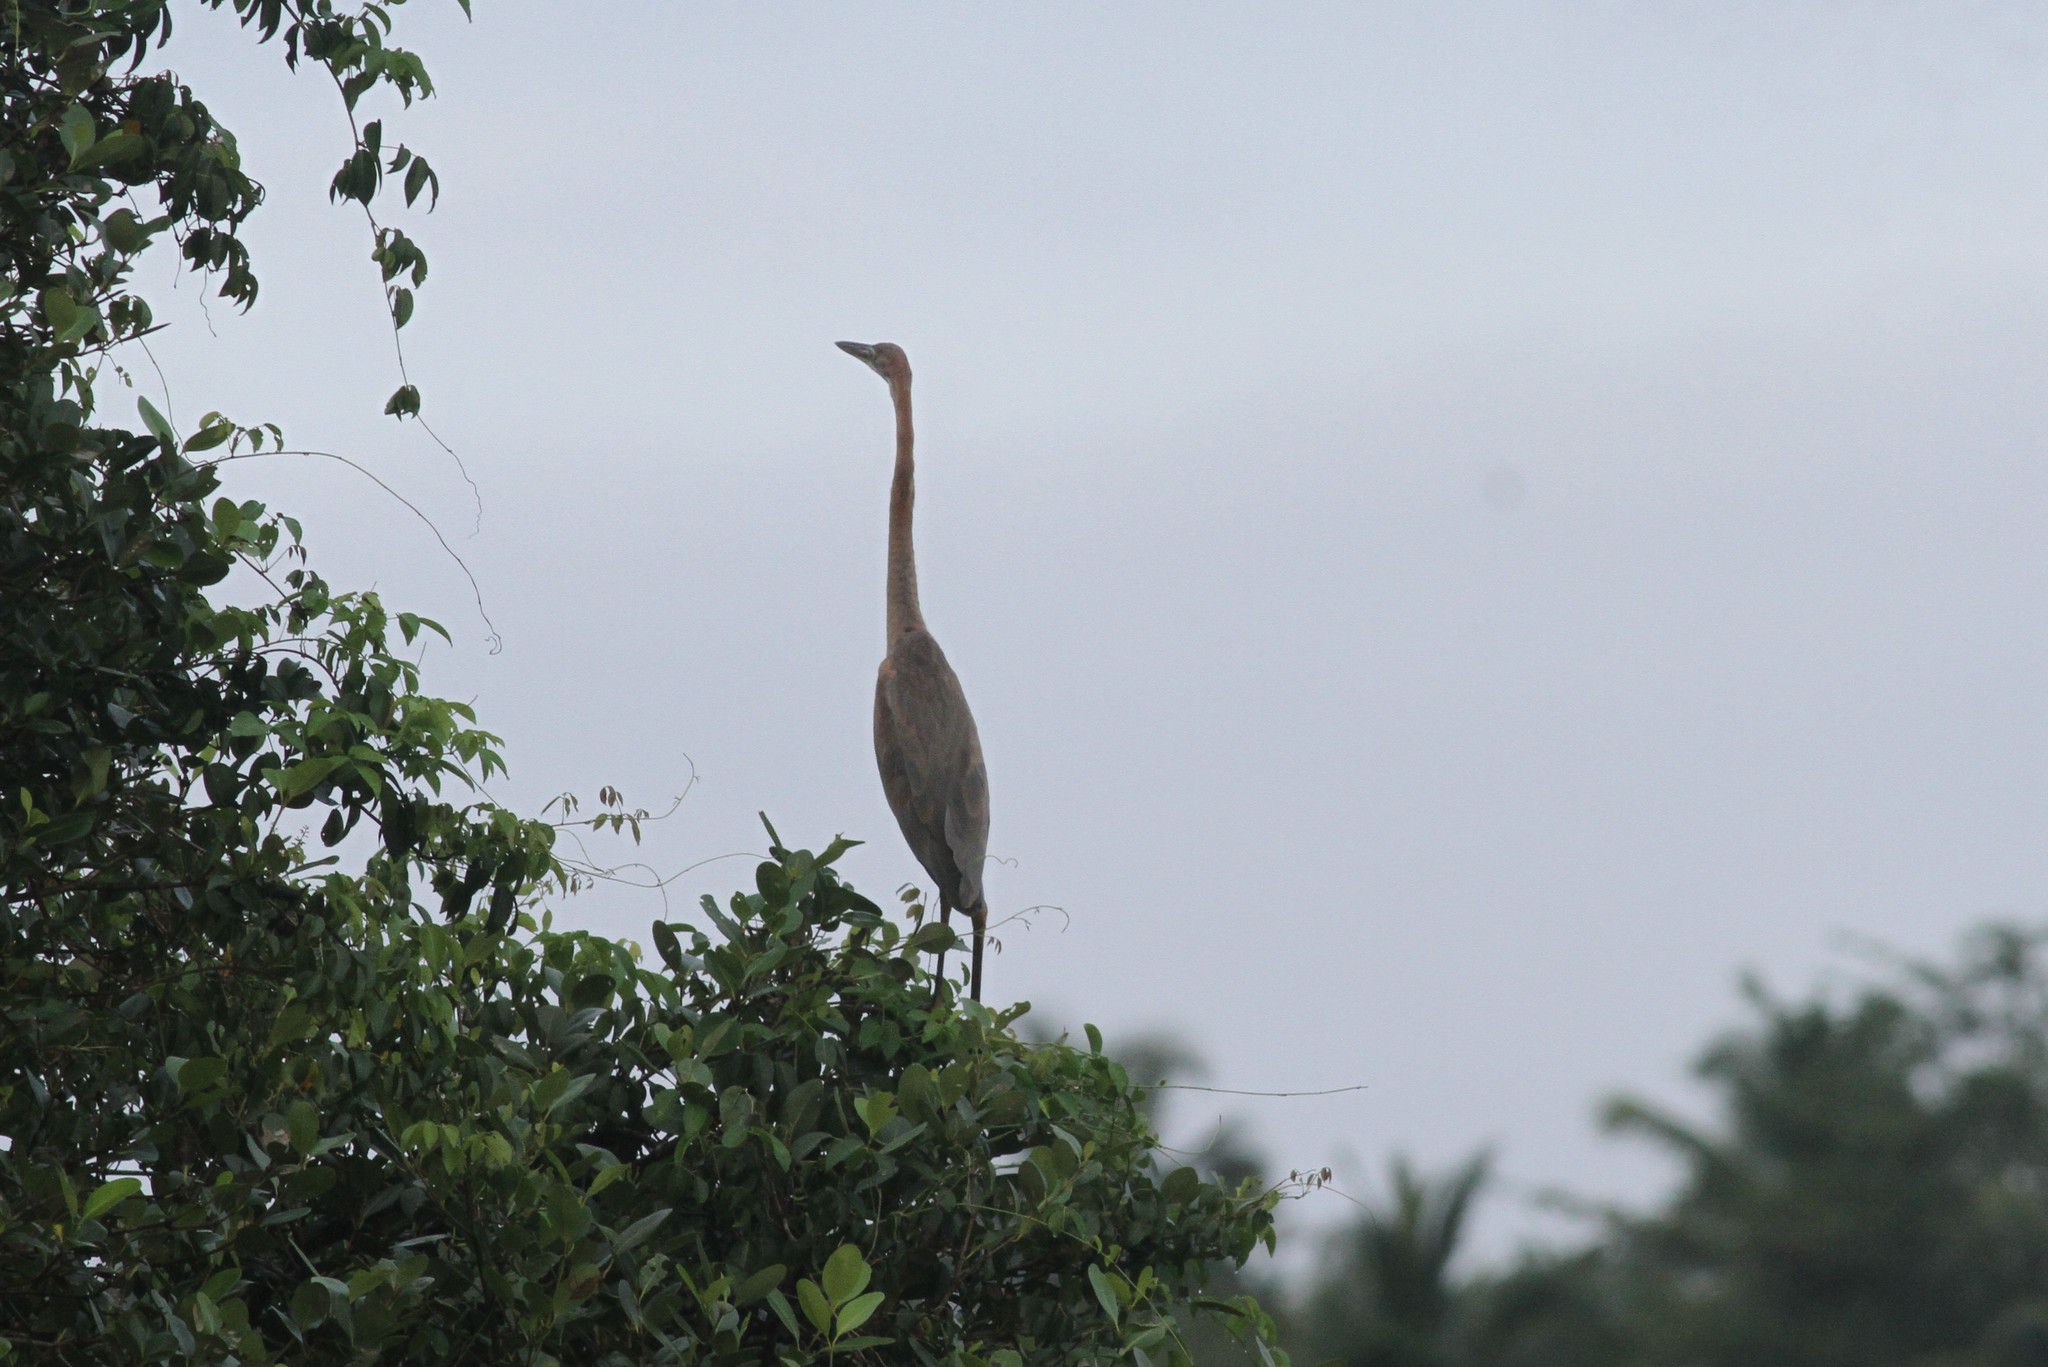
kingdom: Animalia
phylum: Chordata
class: Aves
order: Pelecaniformes
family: Ardeidae
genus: Ardea
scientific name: Ardea purpurea
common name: Purple heron
